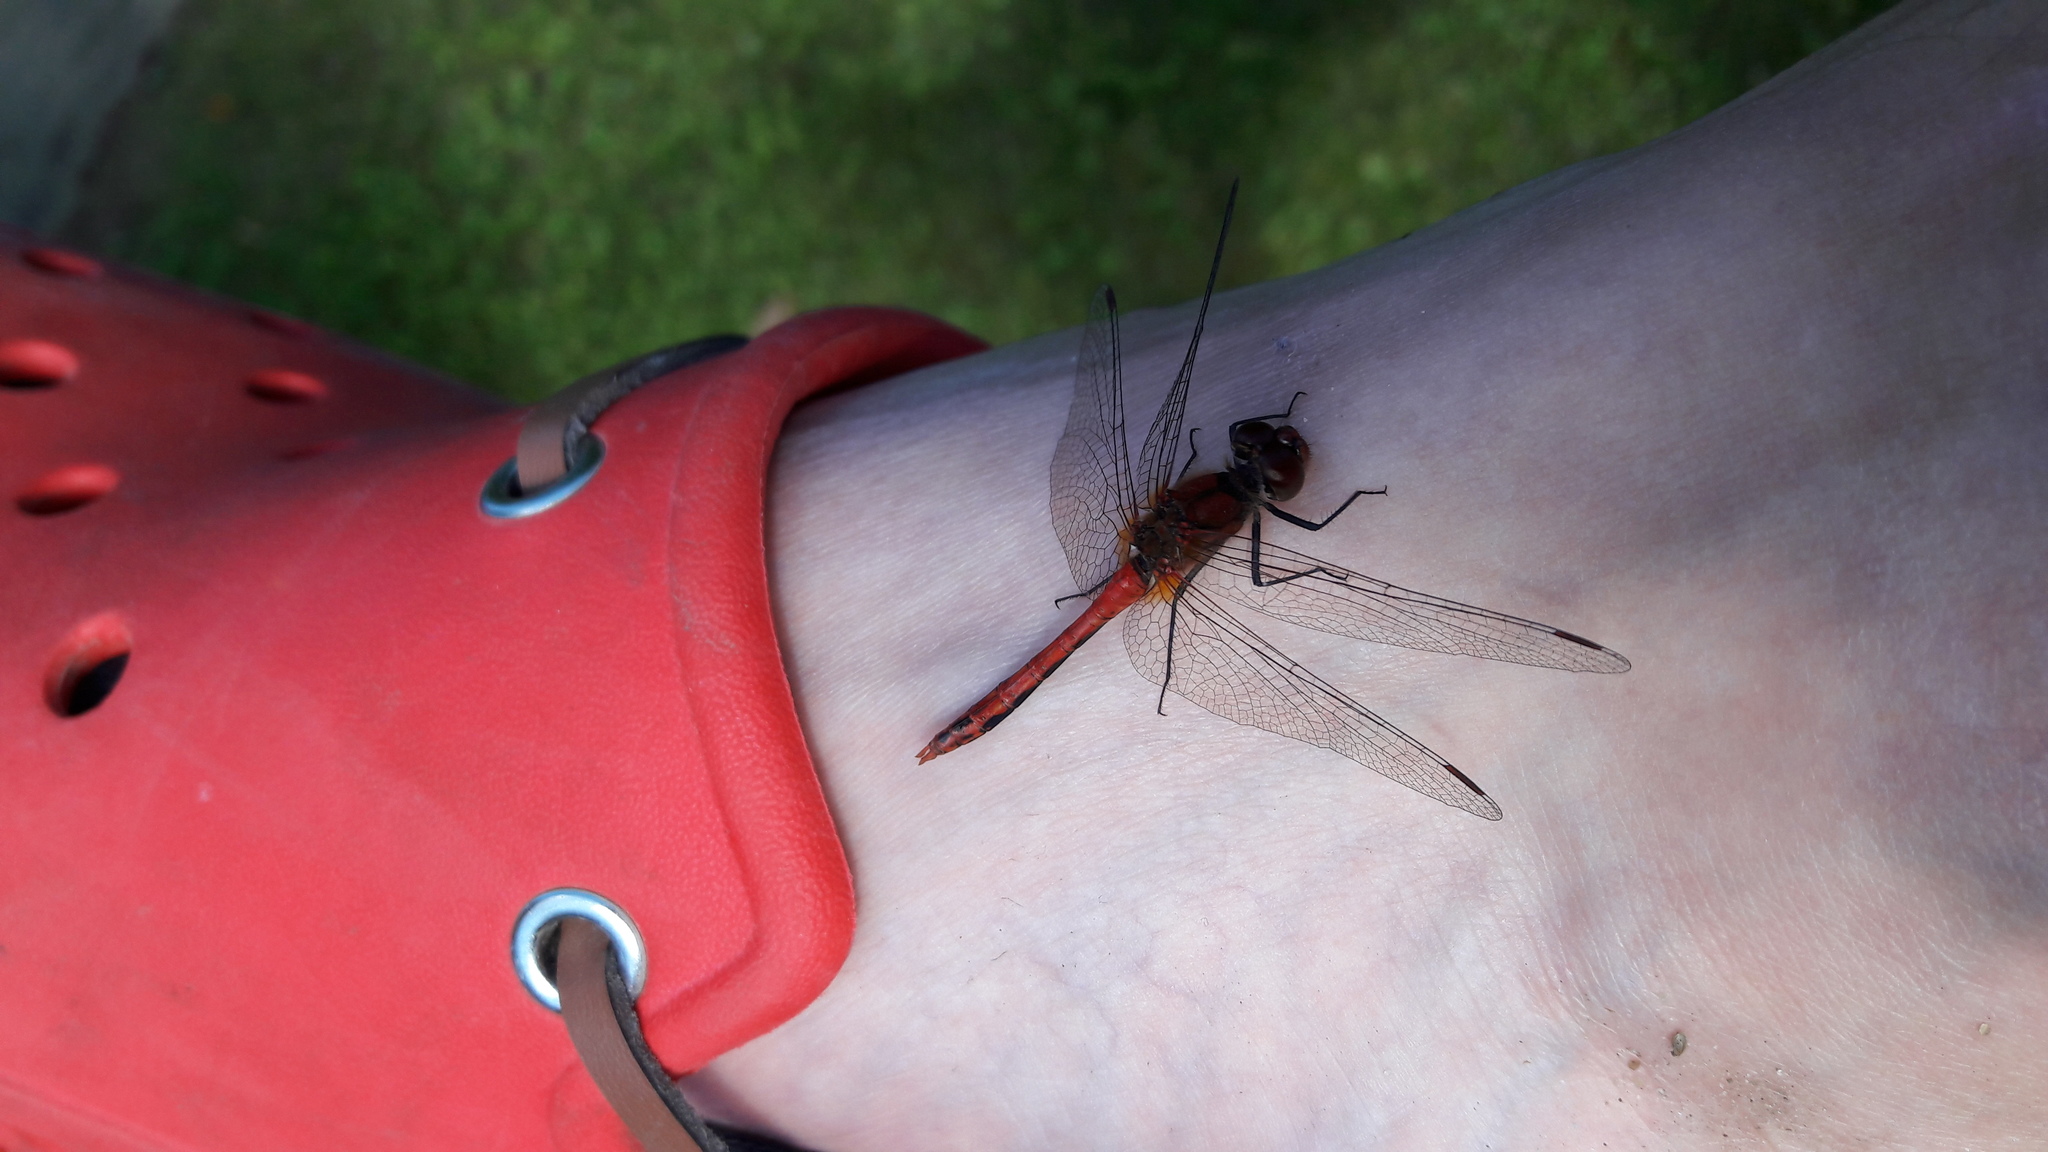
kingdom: Animalia
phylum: Arthropoda
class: Insecta
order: Odonata
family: Libellulidae
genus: Sympetrum
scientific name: Sympetrum sanguineum
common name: Ruddy darter
